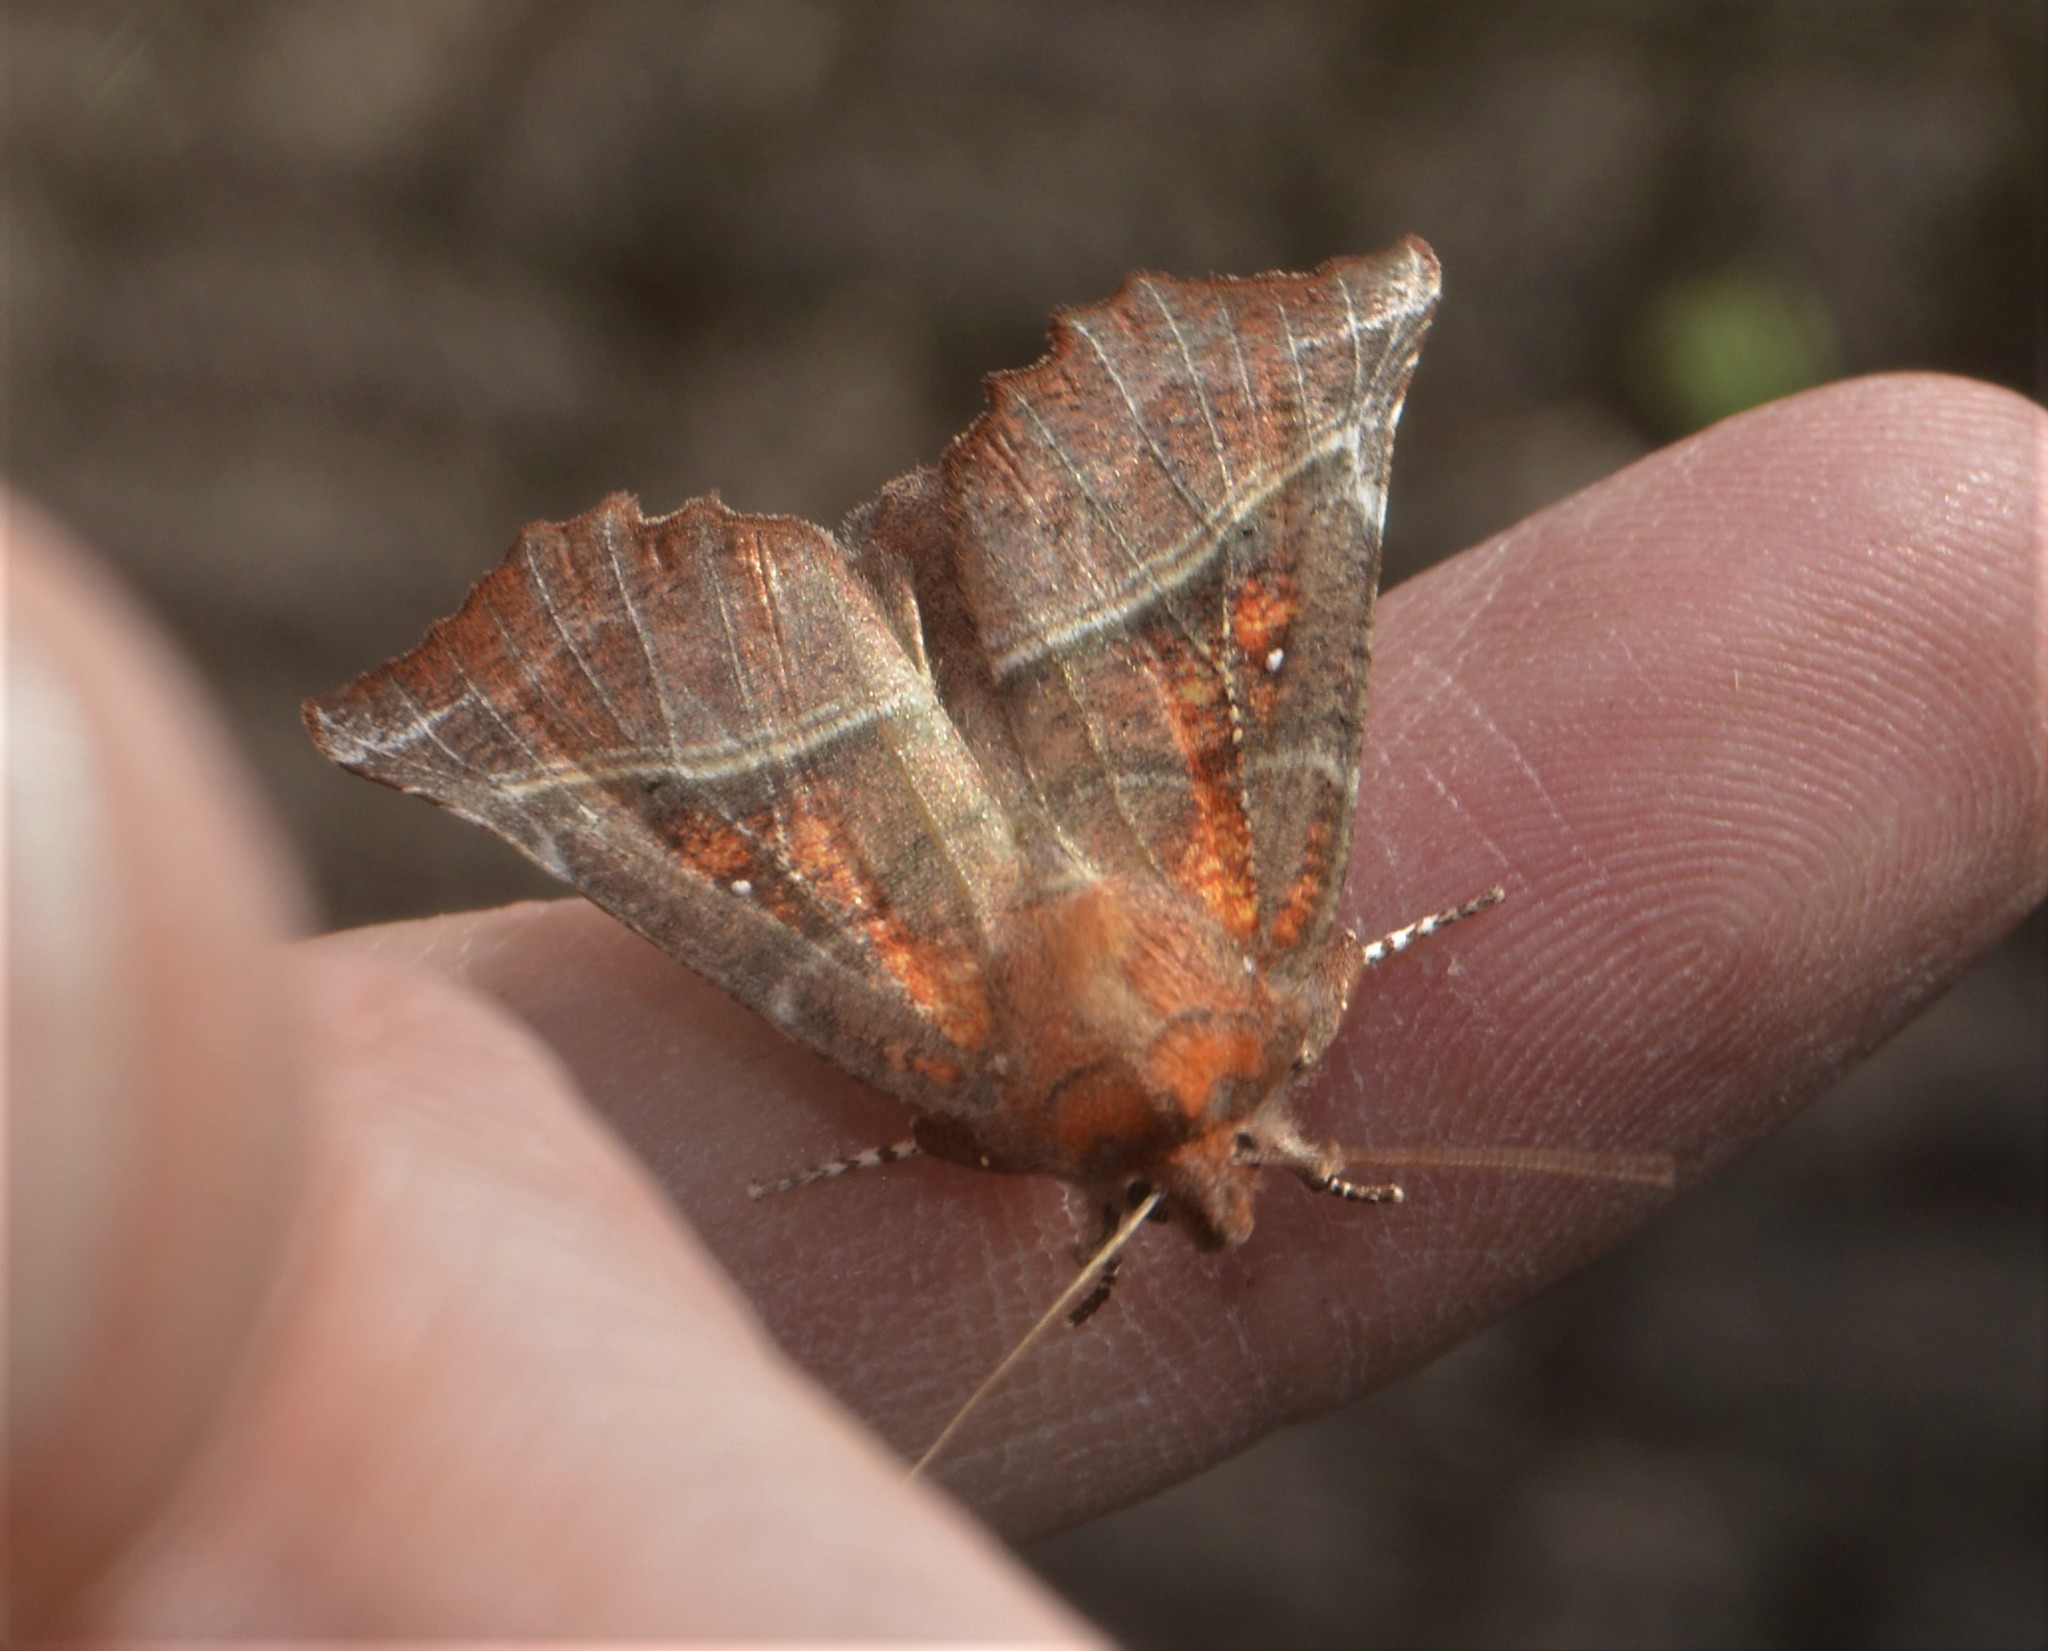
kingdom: Animalia
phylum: Arthropoda
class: Insecta
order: Lepidoptera
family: Erebidae
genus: Scoliopteryx
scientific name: Scoliopteryx libatrix
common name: Herald
